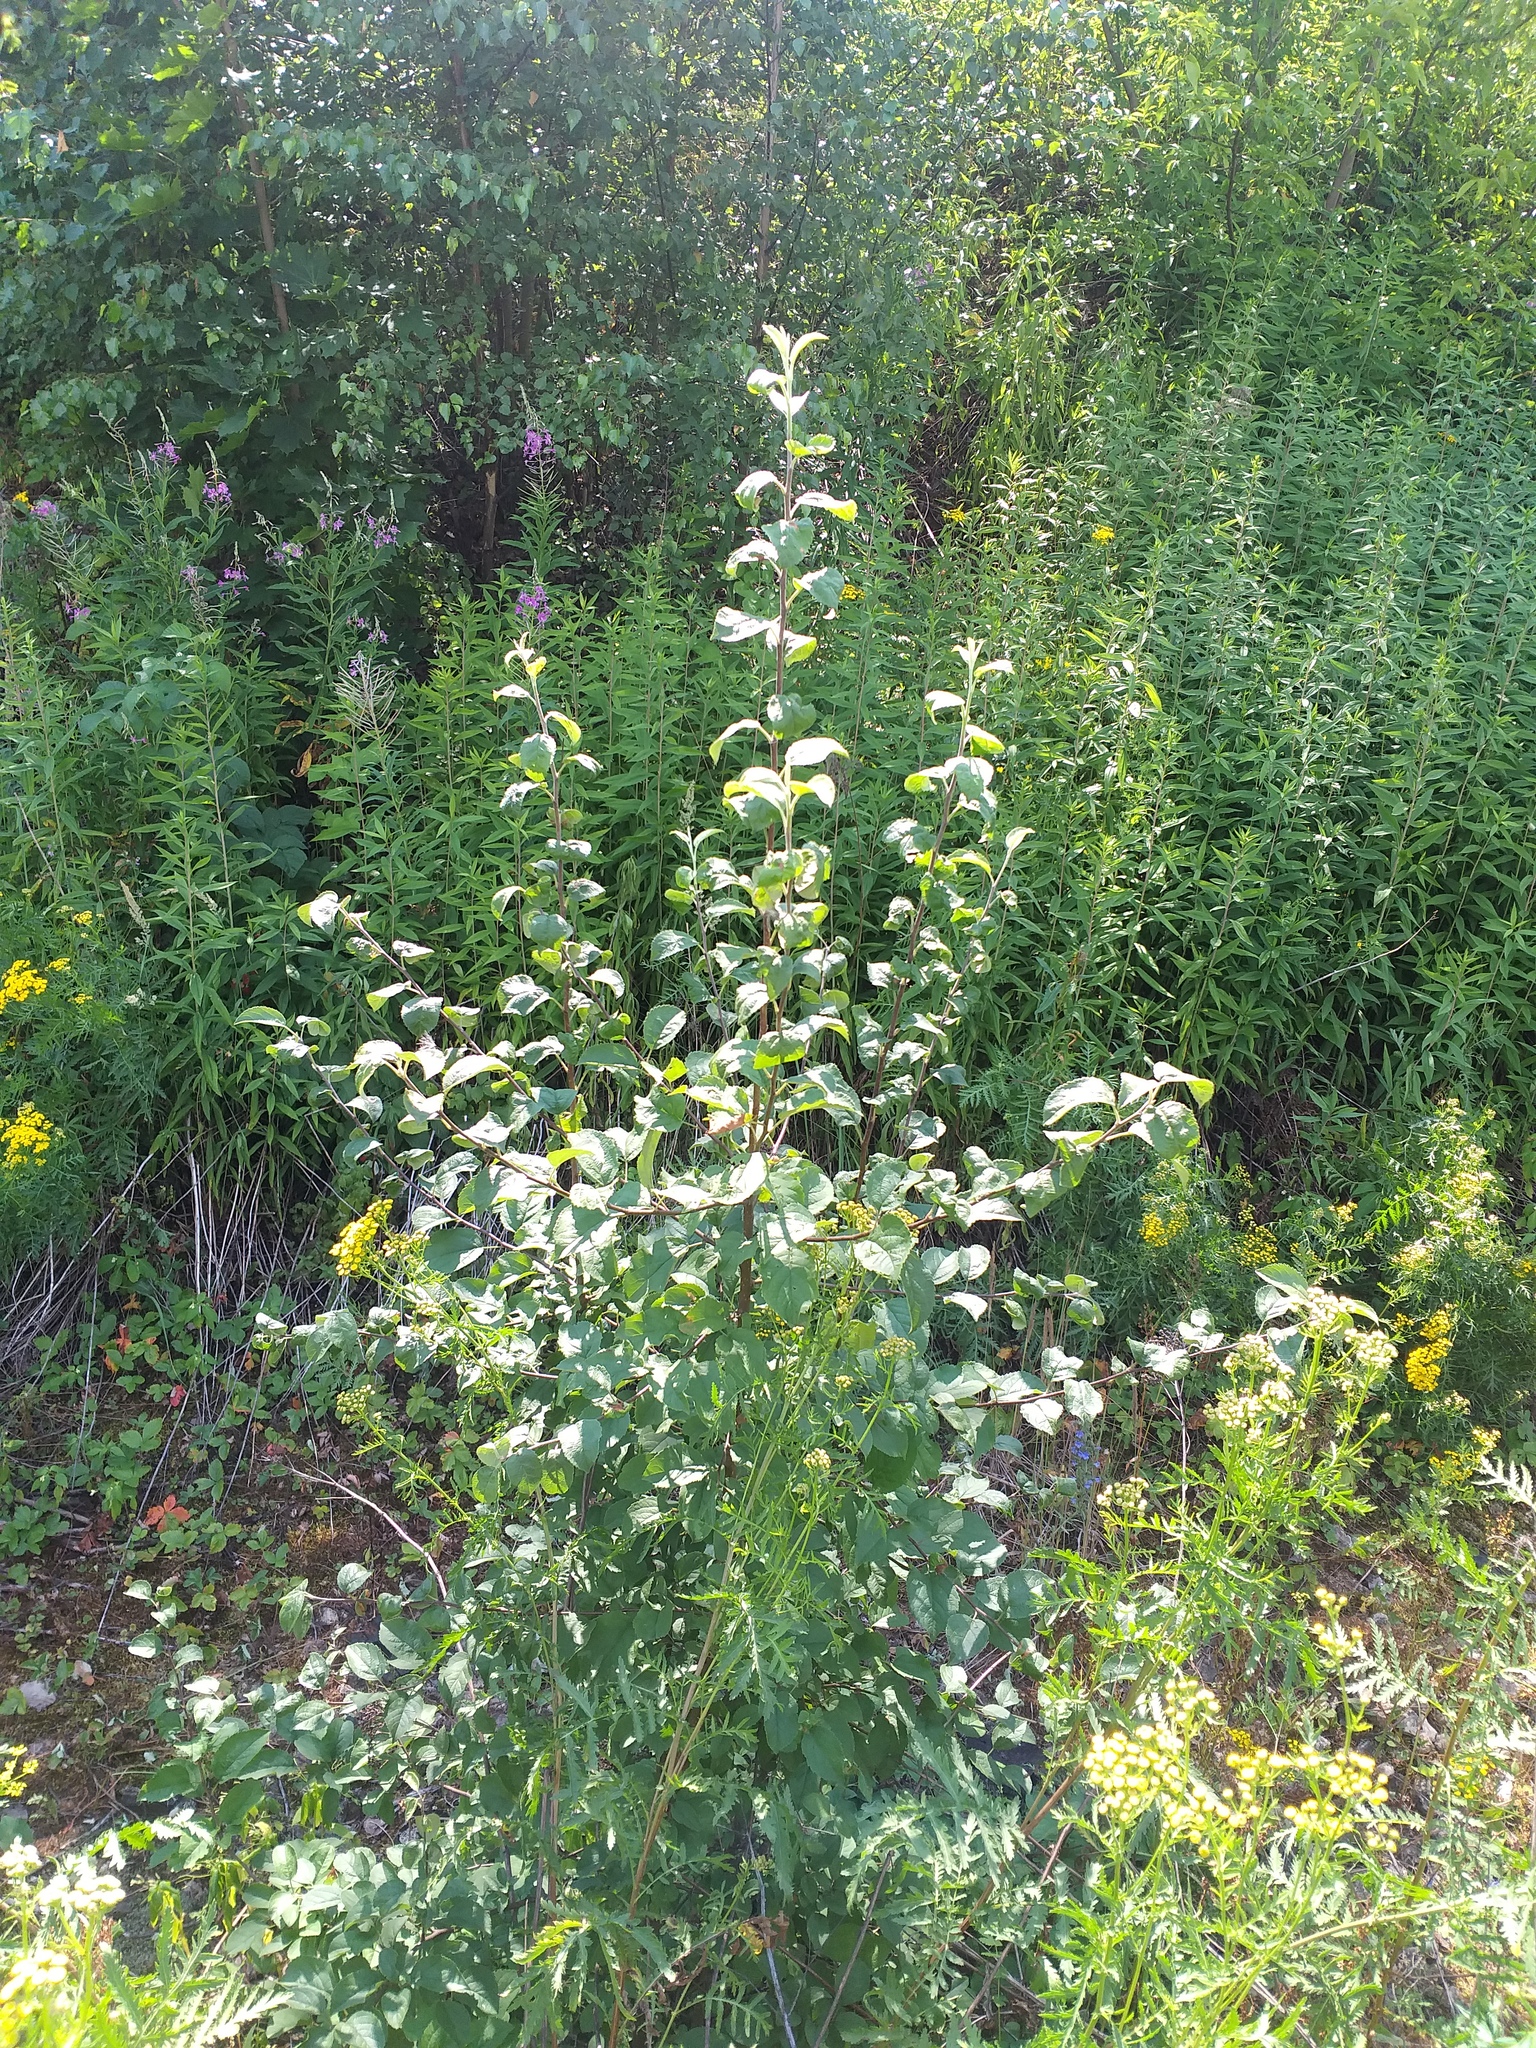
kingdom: Plantae
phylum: Tracheophyta
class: Magnoliopsida
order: Rosales
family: Rosaceae
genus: Malus
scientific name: Malus domestica
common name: Apple
